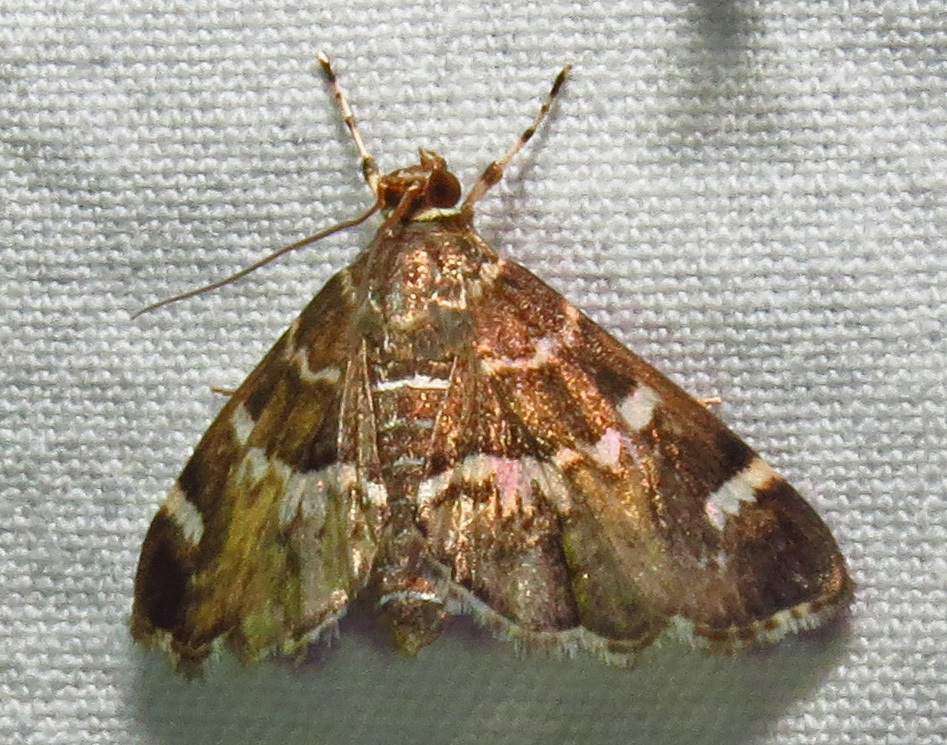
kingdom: Animalia
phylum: Arthropoda
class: Insecta
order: Lepidoptera
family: Crambidae
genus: Hymenia
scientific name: Hymenia perspectalis
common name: Spotted beet webworm
